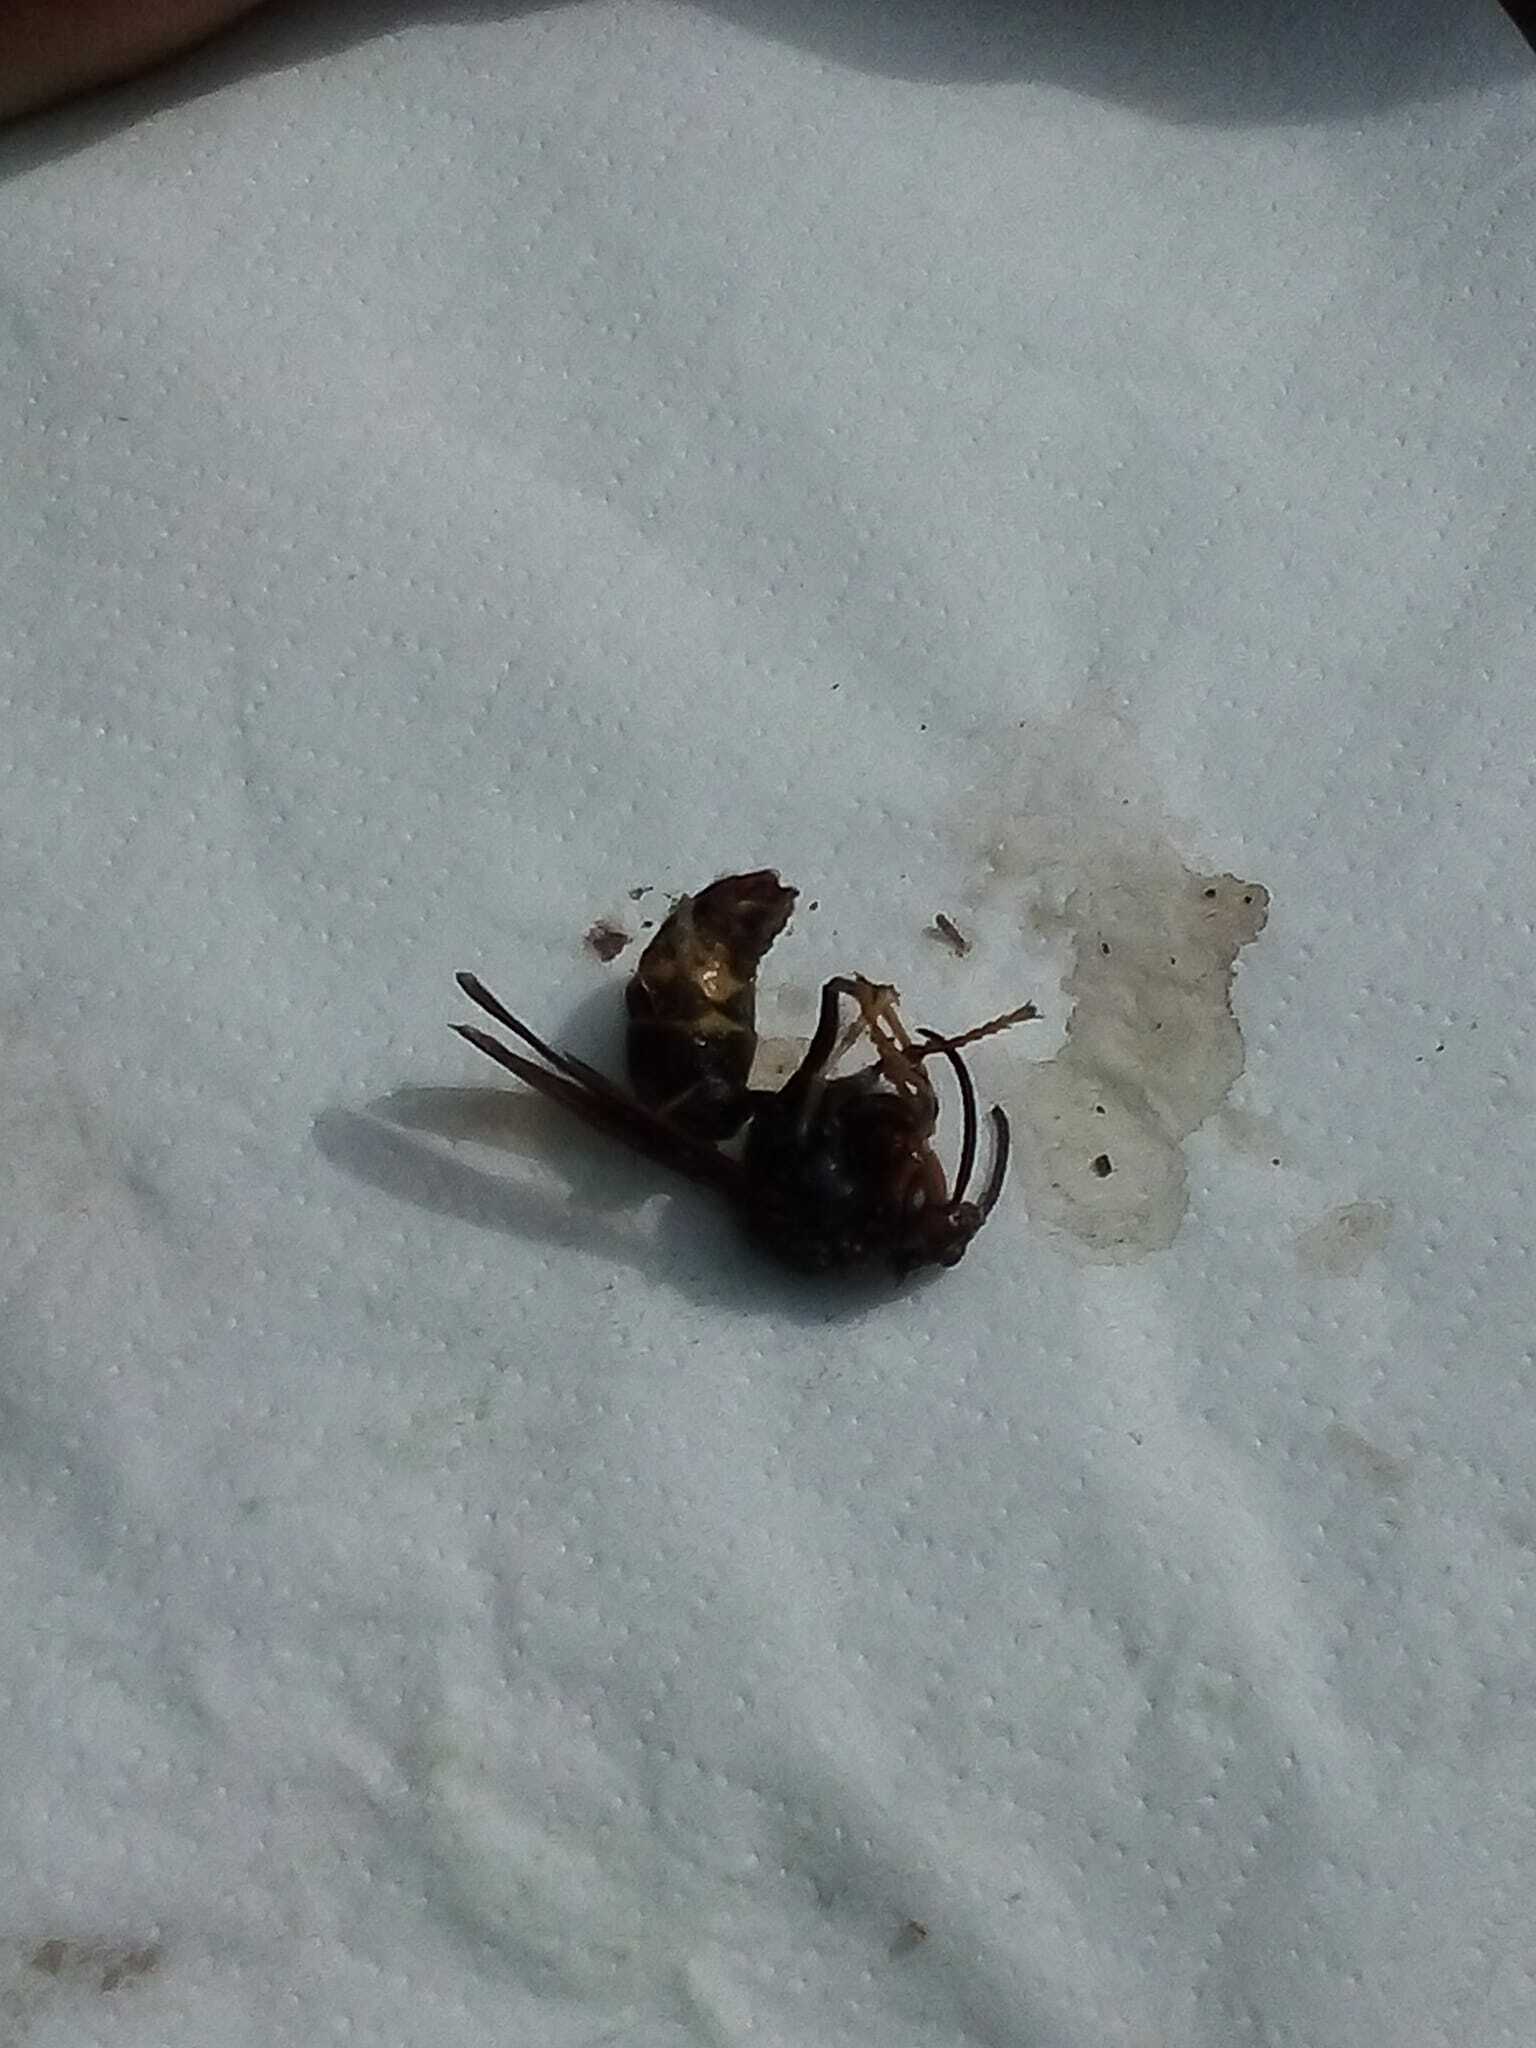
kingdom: Animalia
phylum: Arthropoda
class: Insecta
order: Hymenoptera
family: Vespidae
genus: Vespa
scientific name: Vespa velutina
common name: Asian hornet
